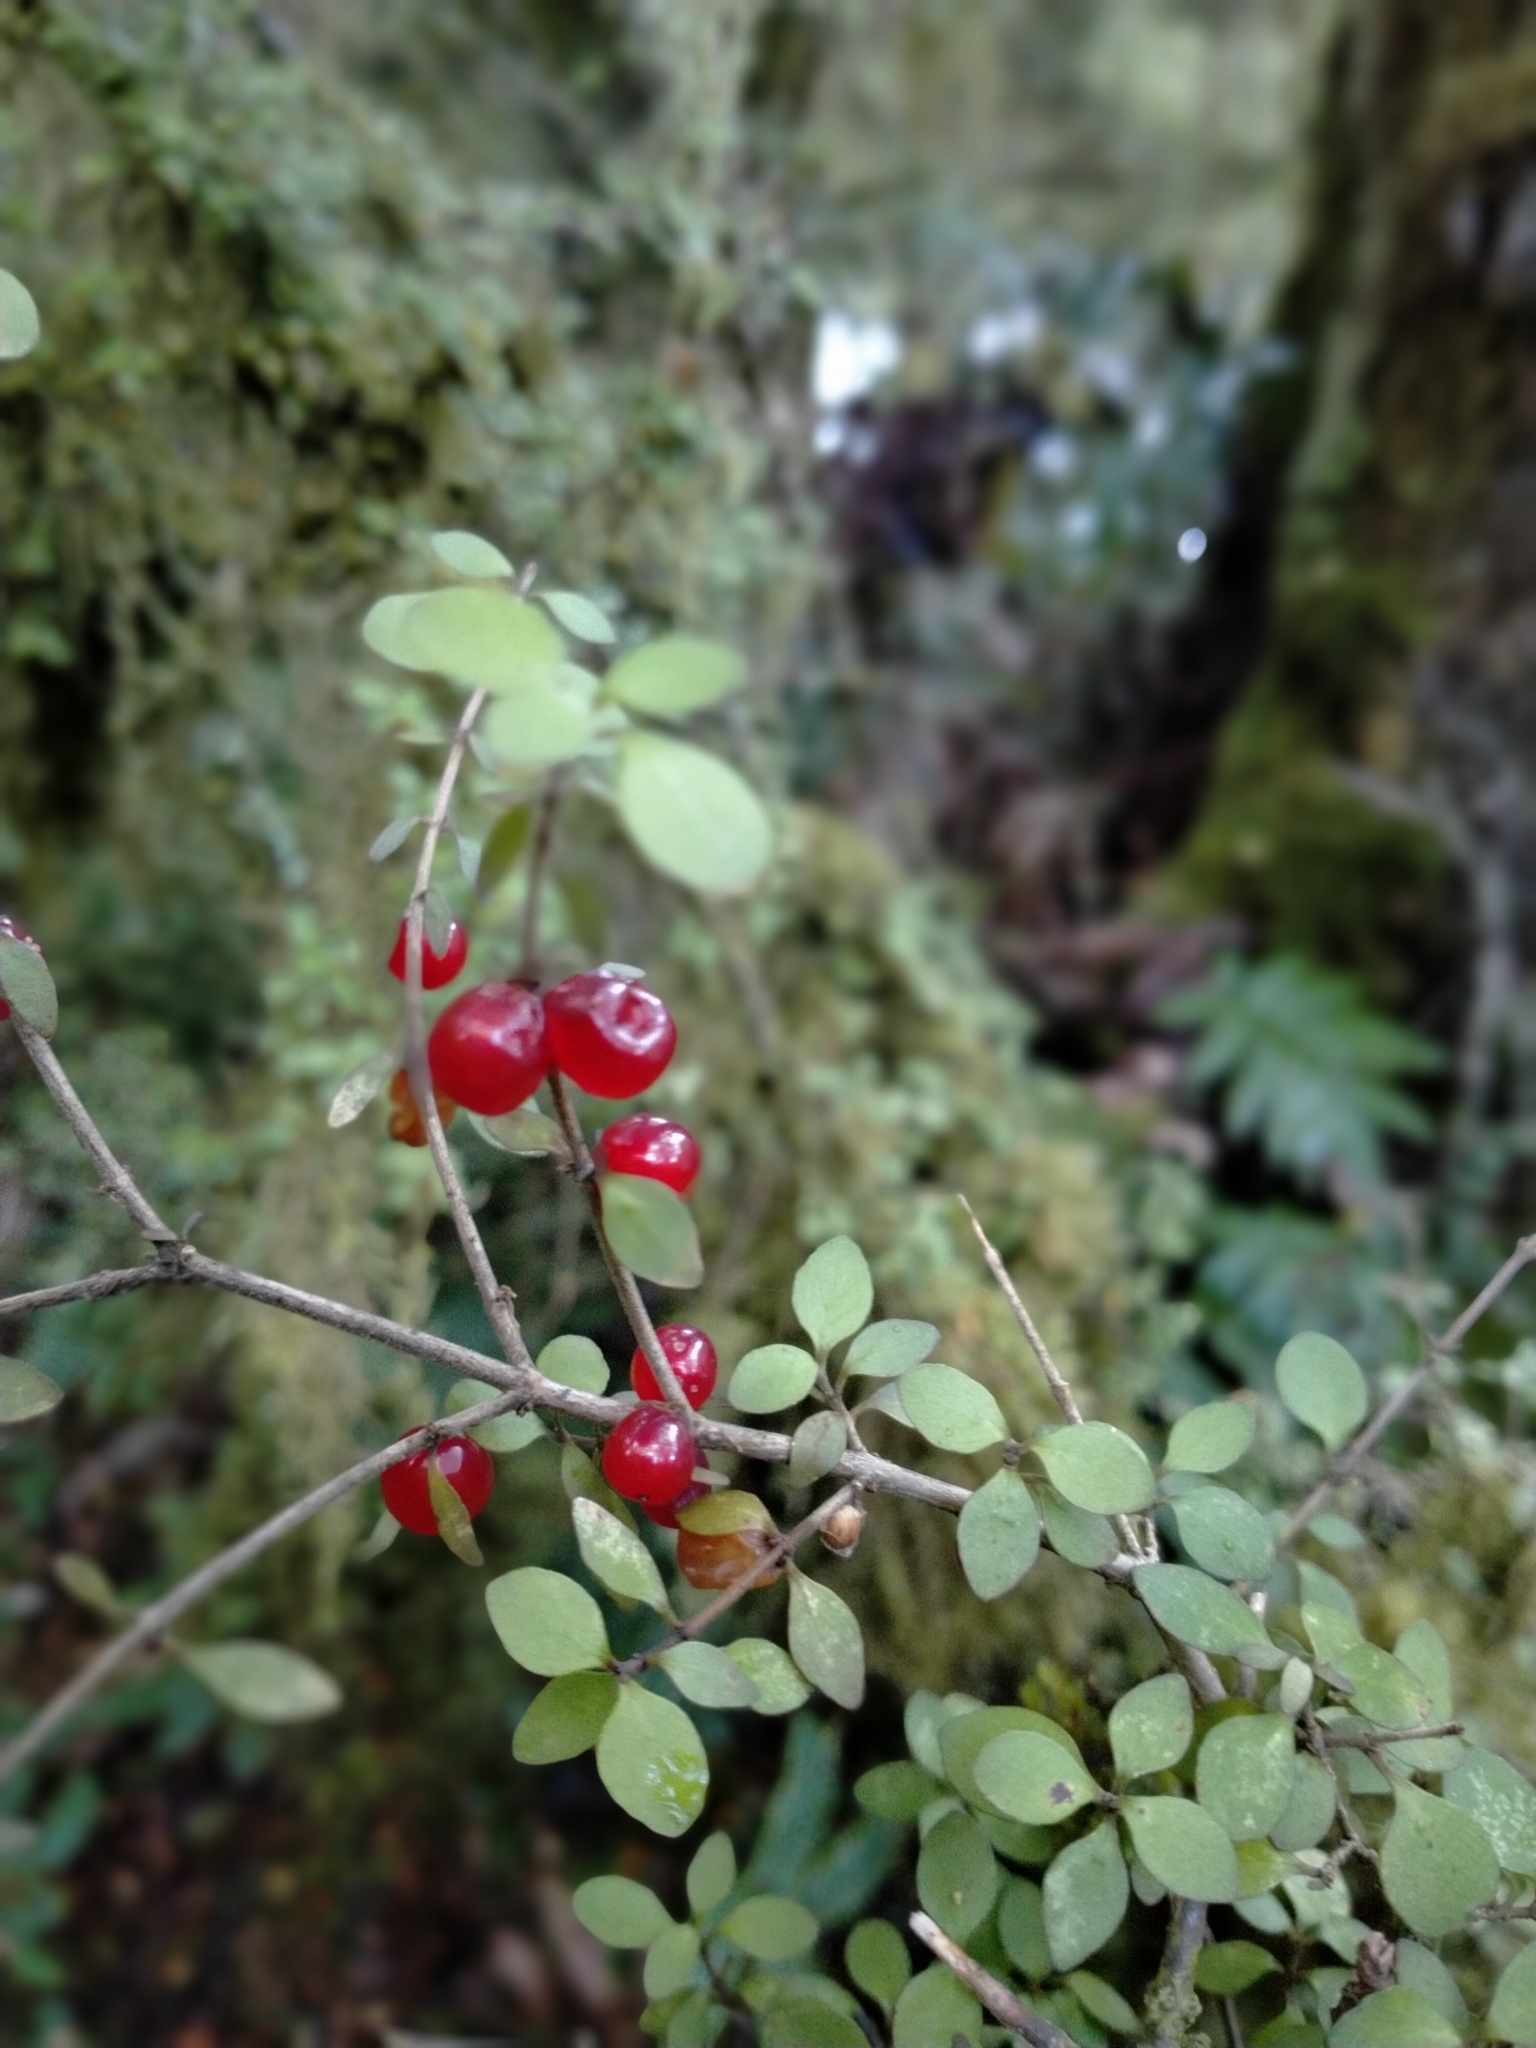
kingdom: Plantae
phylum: Tracheophyta
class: Magnoliopsida
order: Gentianales
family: Rubiaceae
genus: Coprosma
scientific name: Coprosma rhamnoides
